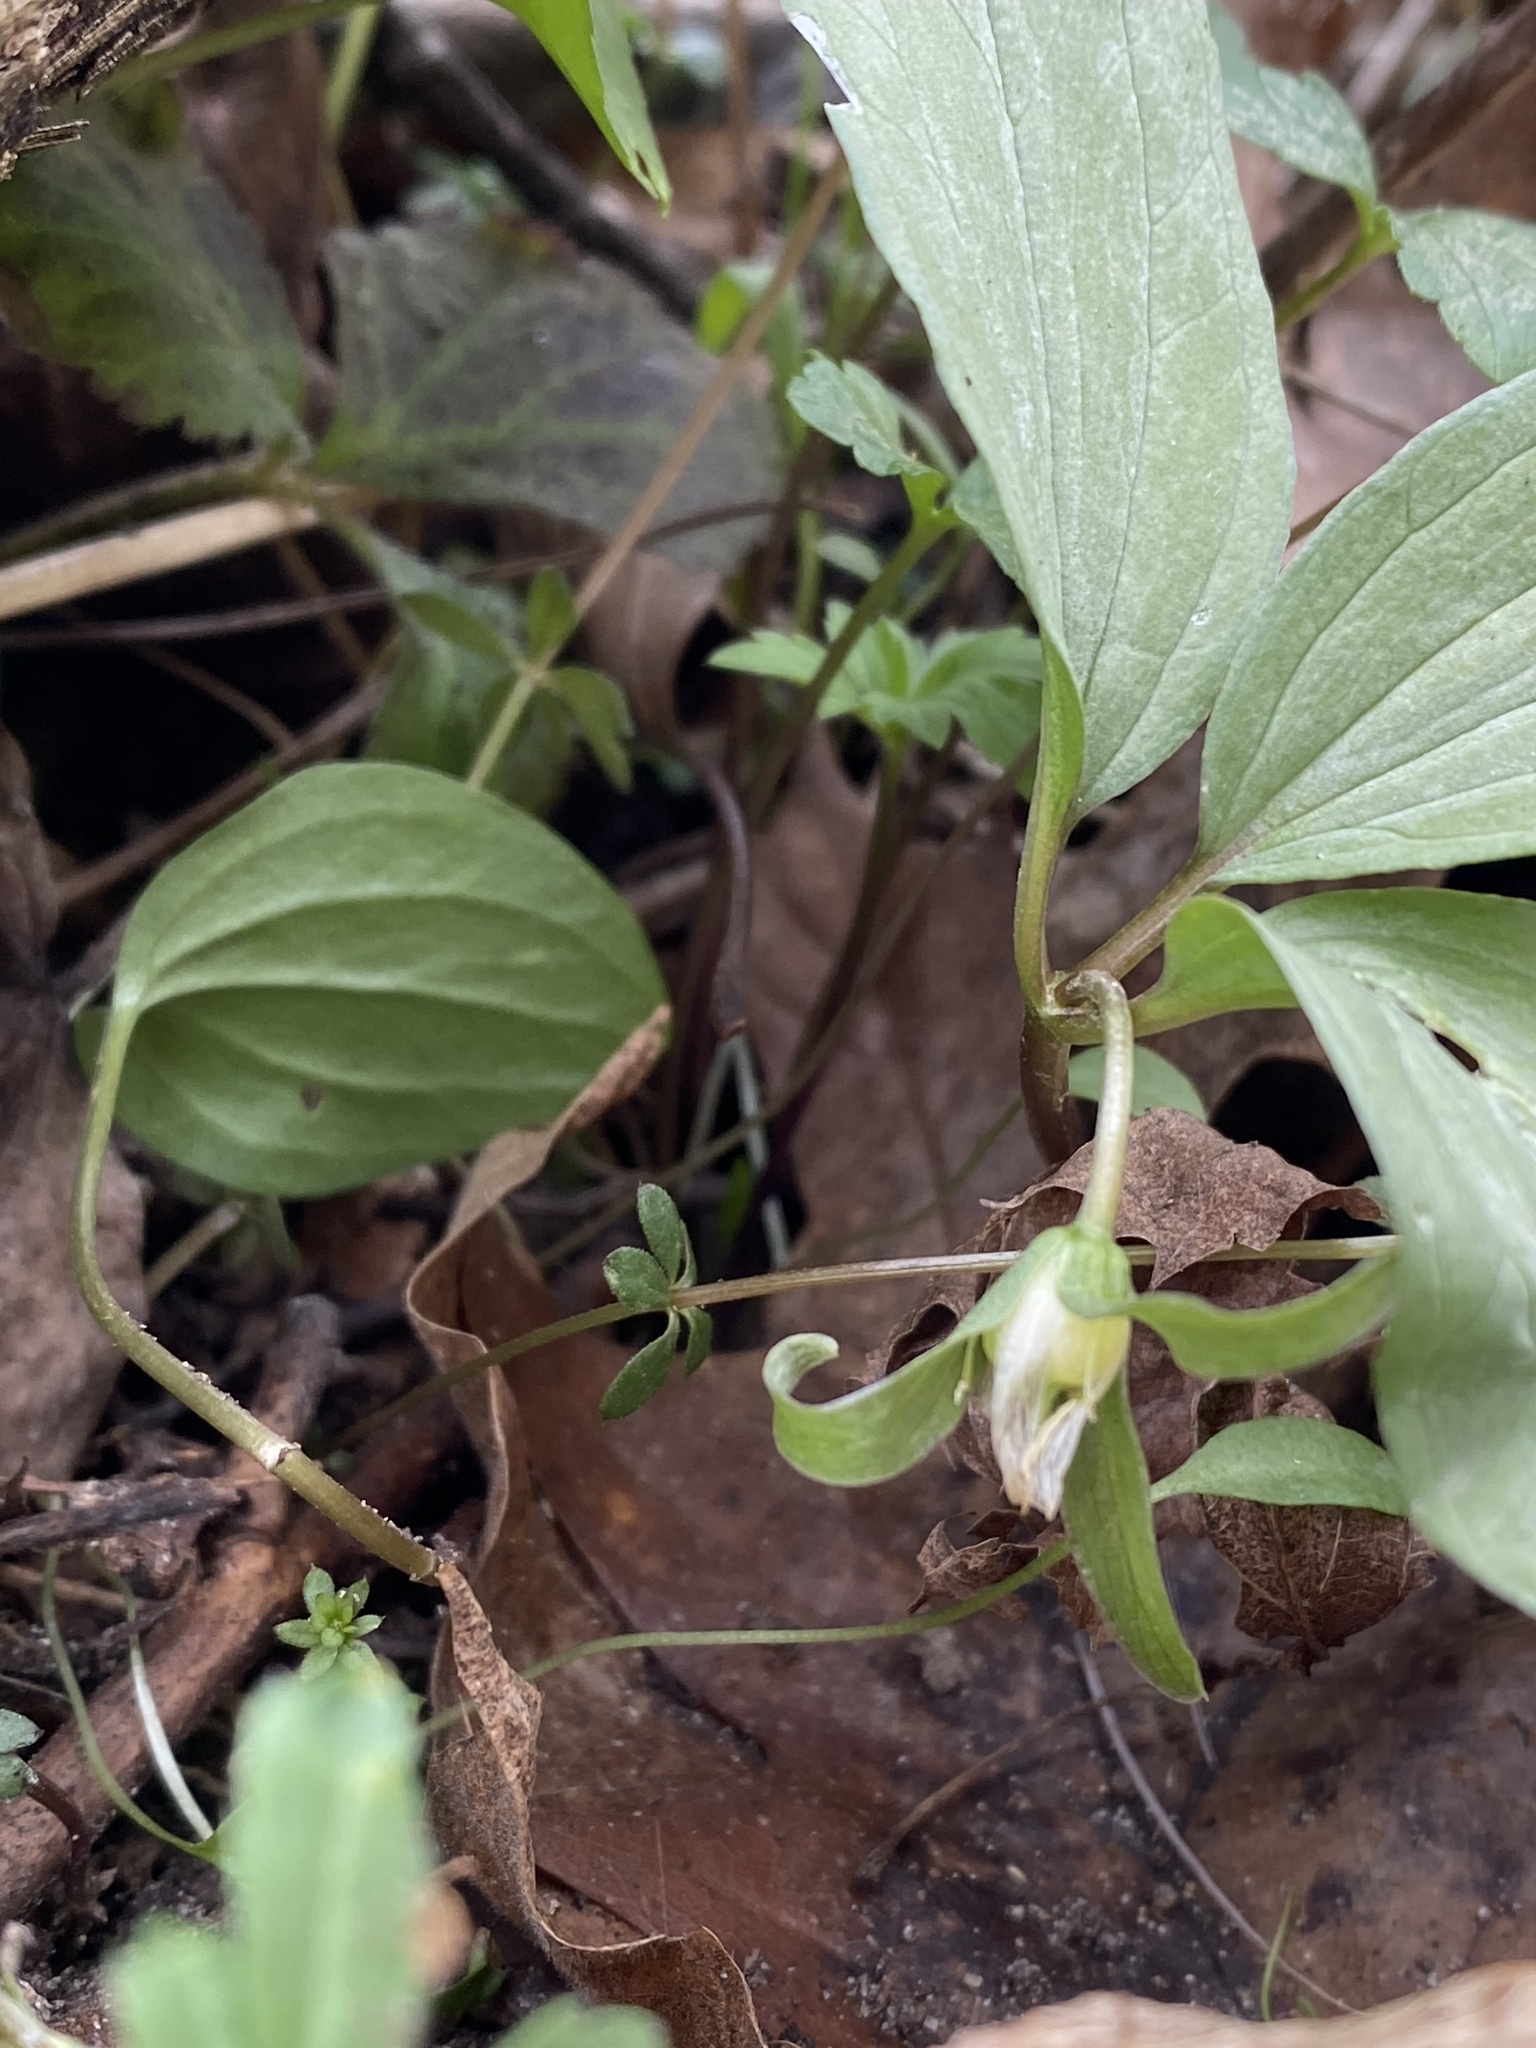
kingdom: Plantae
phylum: Tracheophyta
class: Liliopsida
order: Liliales
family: Melanthiaceae
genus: Trillium
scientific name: Trillium nivale
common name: Dwarf white trillium
